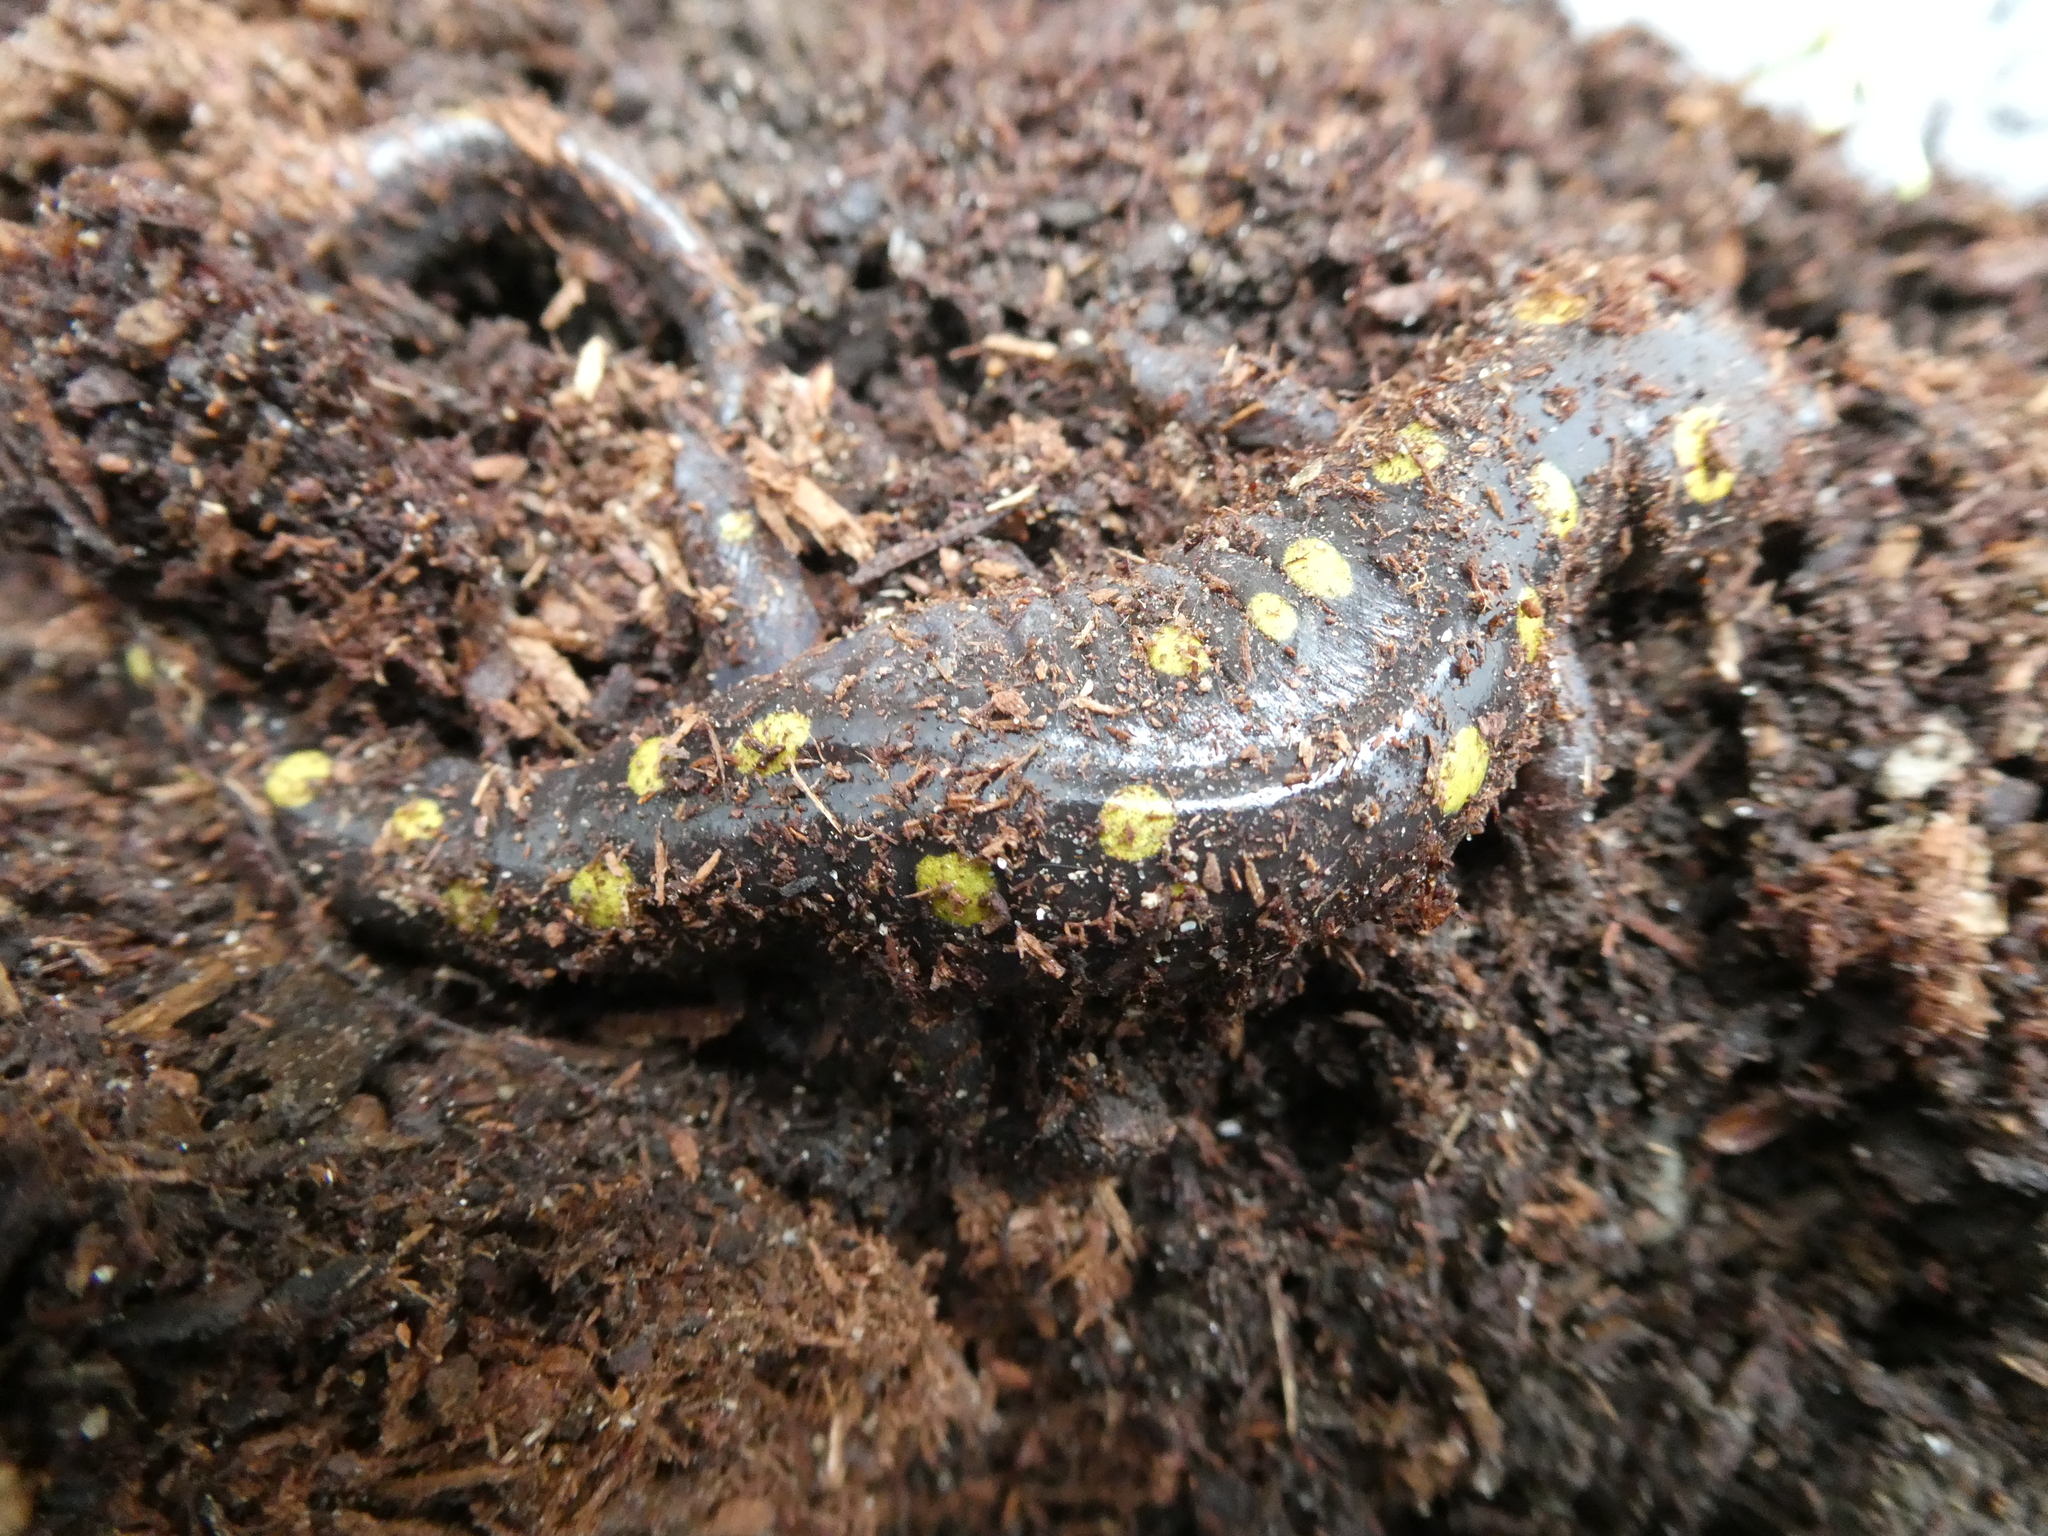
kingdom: Animalia
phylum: Chordata
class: Amphibia
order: Caudata
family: Ambystomatidae
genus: Ambystoma
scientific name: Ambystoma maculatum
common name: Spotted salamander
